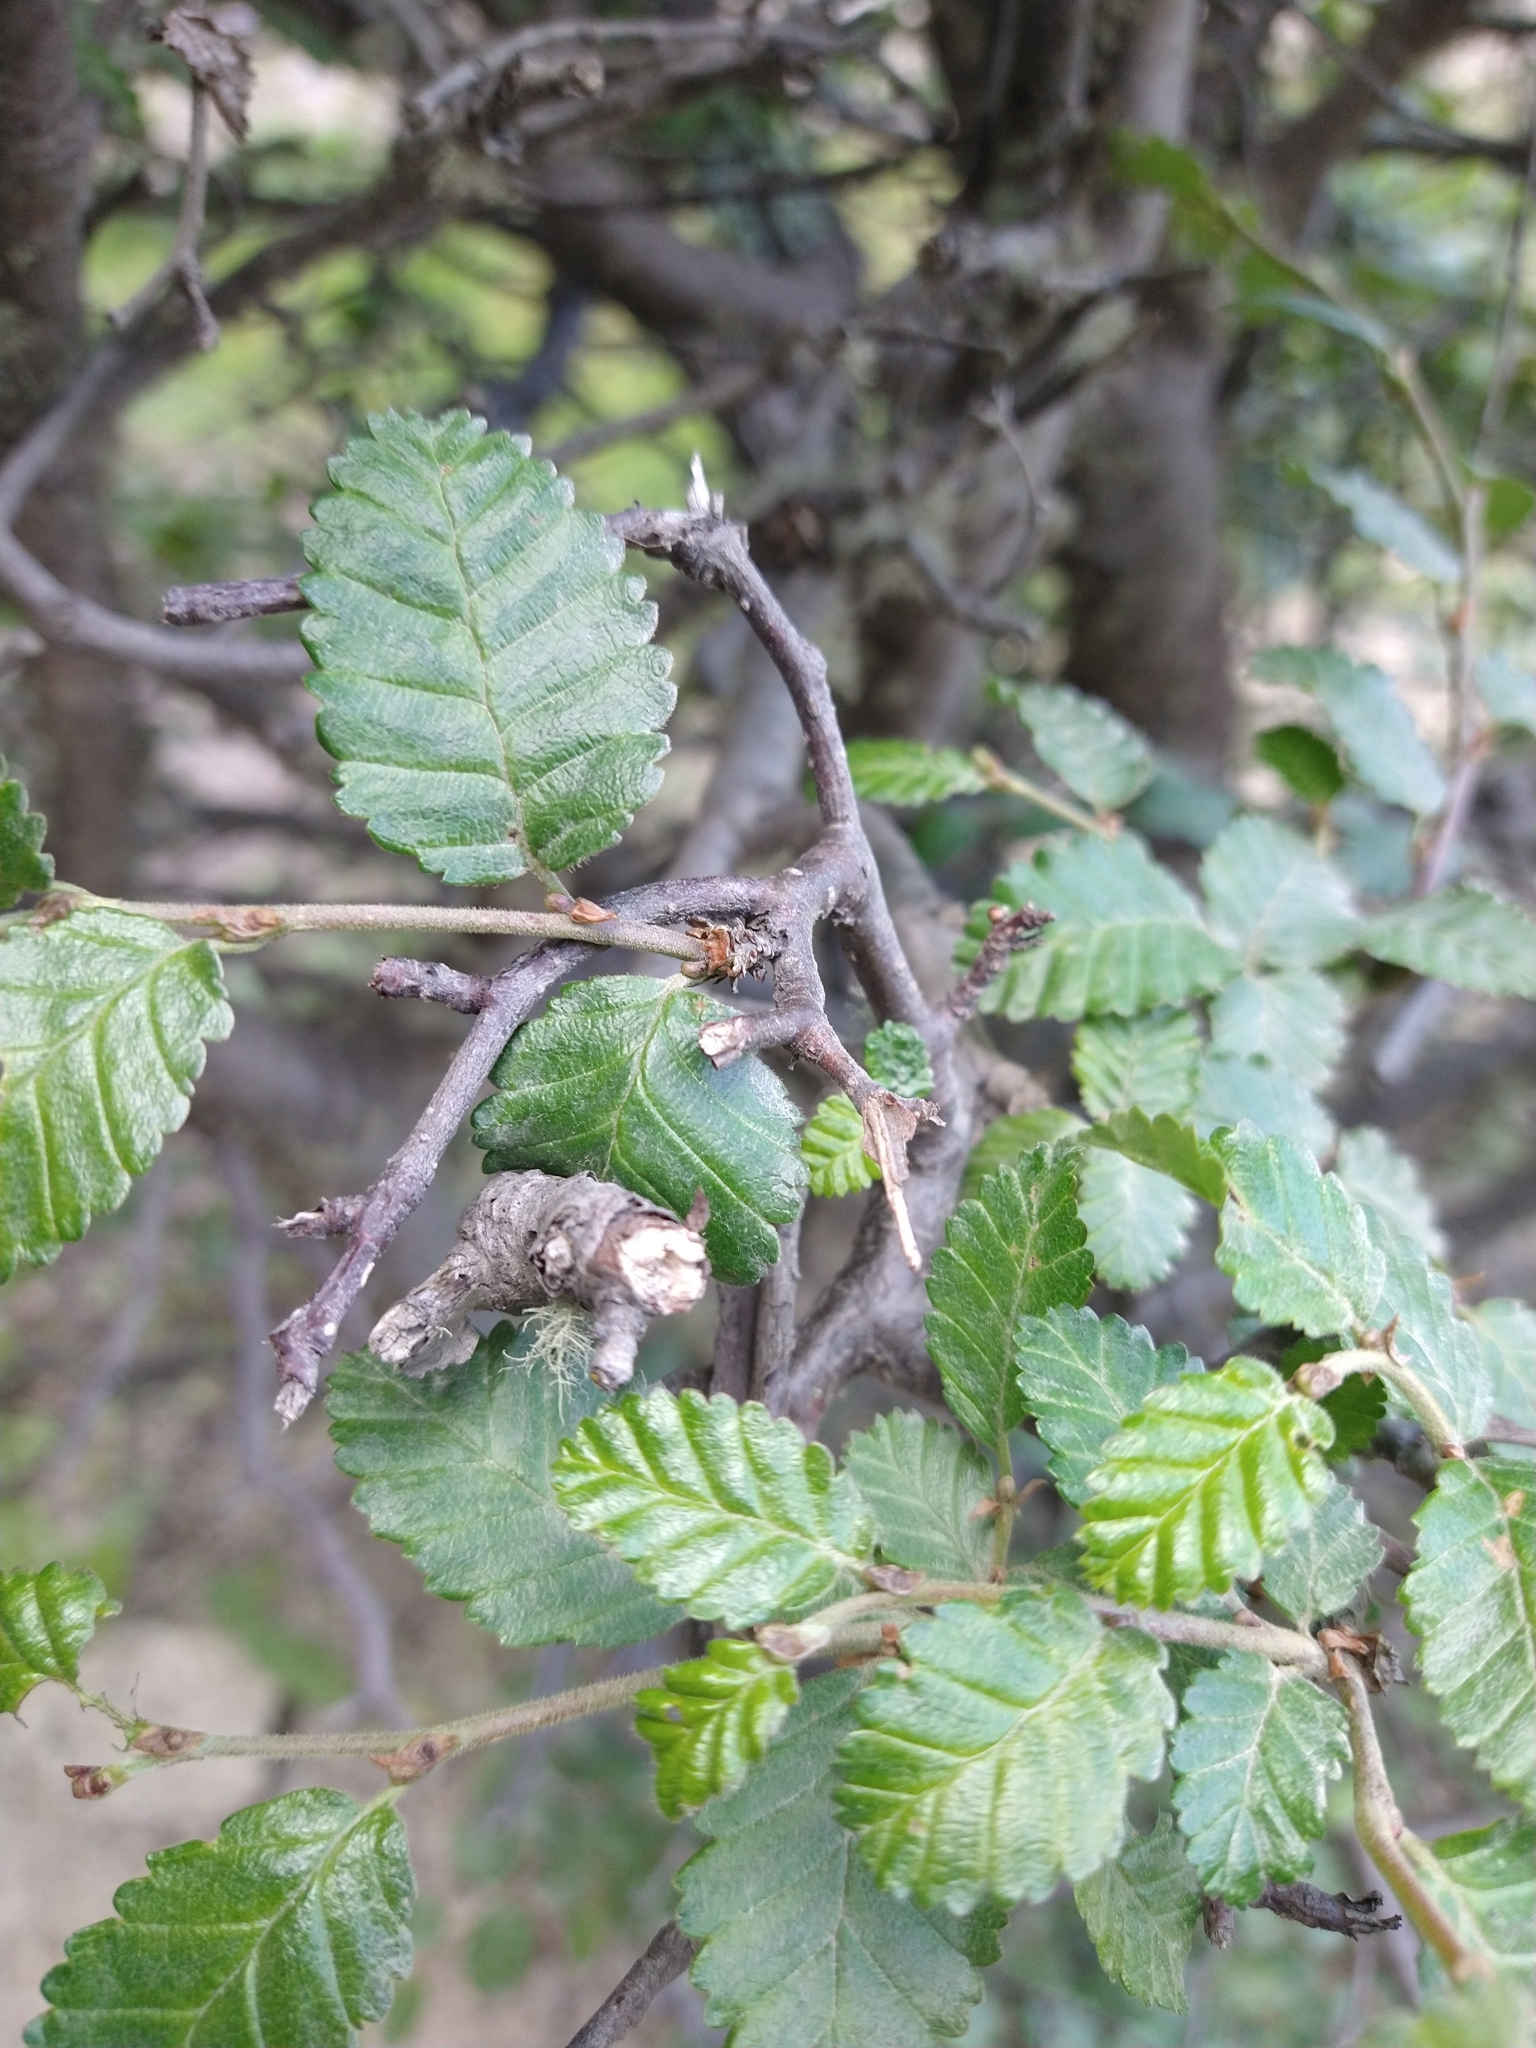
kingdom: Plantae
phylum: Tracheophyta
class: Magnoliopsida
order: Fagales
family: Nothofagaceae
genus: Nothofagus
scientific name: Nothofagus pumilio
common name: Lenga beech
